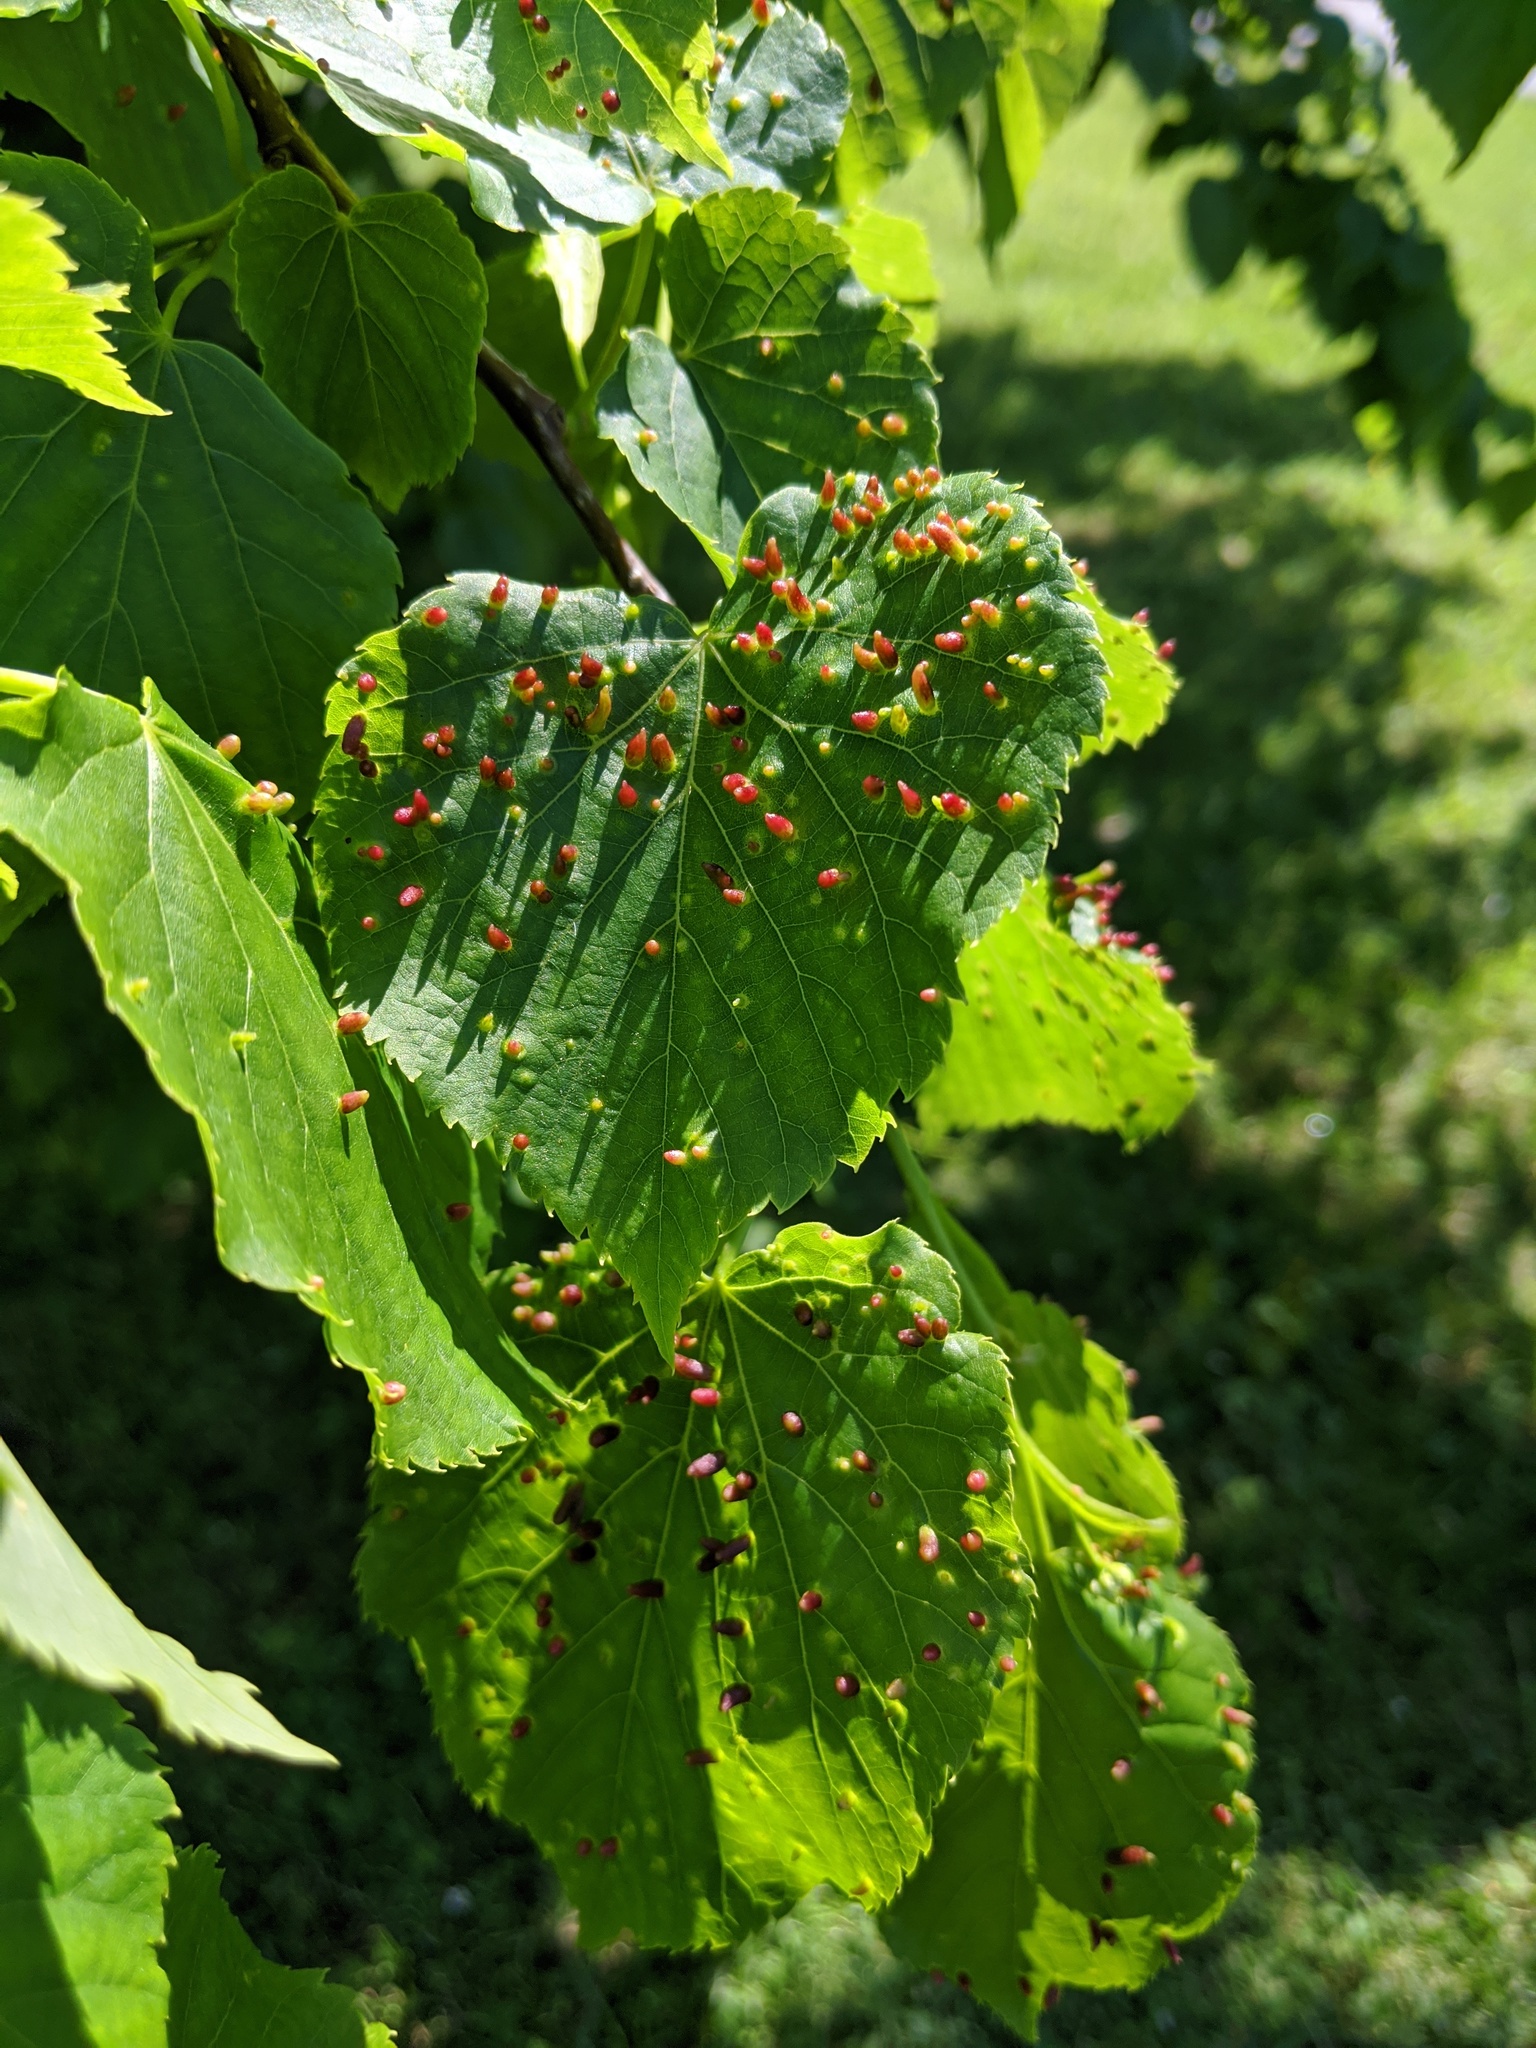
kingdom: Animalia
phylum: Arthropoda
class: Arachnida
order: Trombidiformes
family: Eriophyidae
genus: Eriophyes
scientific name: Eriophyes tiliae
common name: Red nail gall mite
